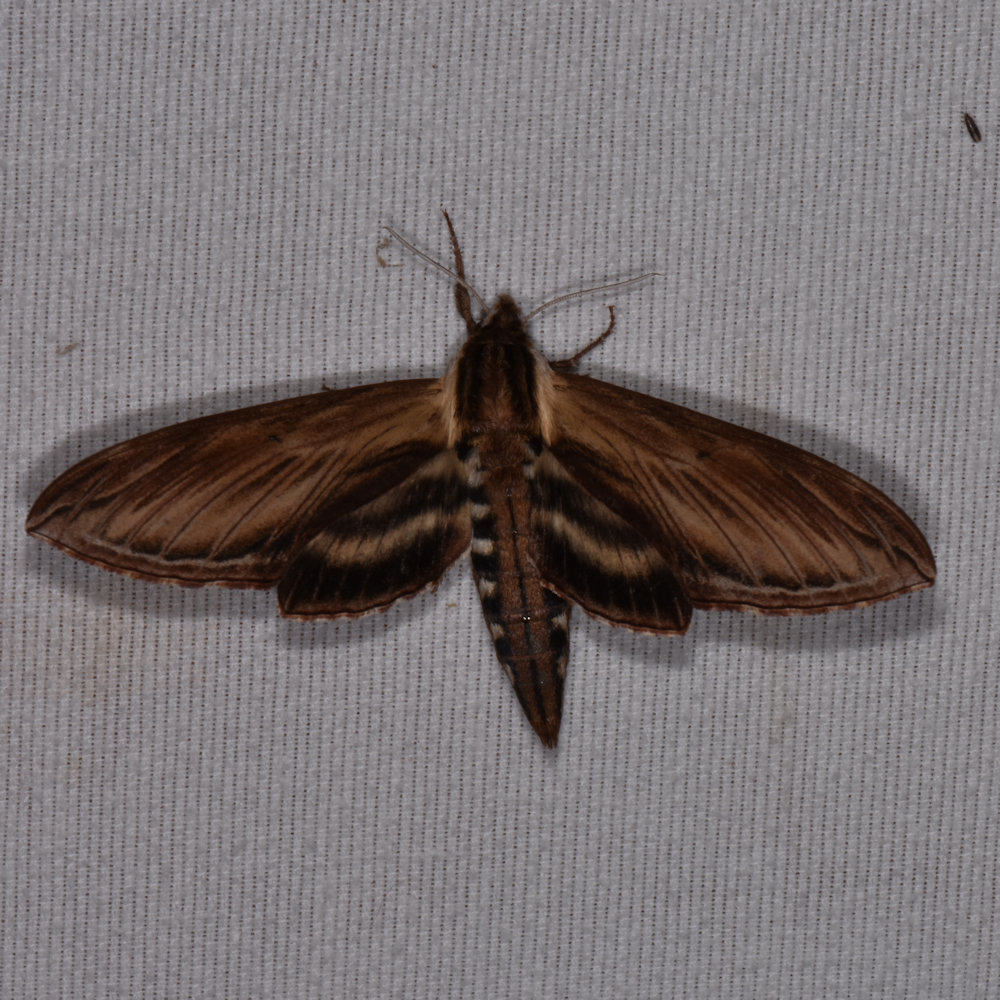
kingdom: Animalia
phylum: Arthropoda
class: Insecta
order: Lepidoptera
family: Sphingidae
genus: Sphinx
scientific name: Sphinx kalmiae
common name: Laurel sphinx
